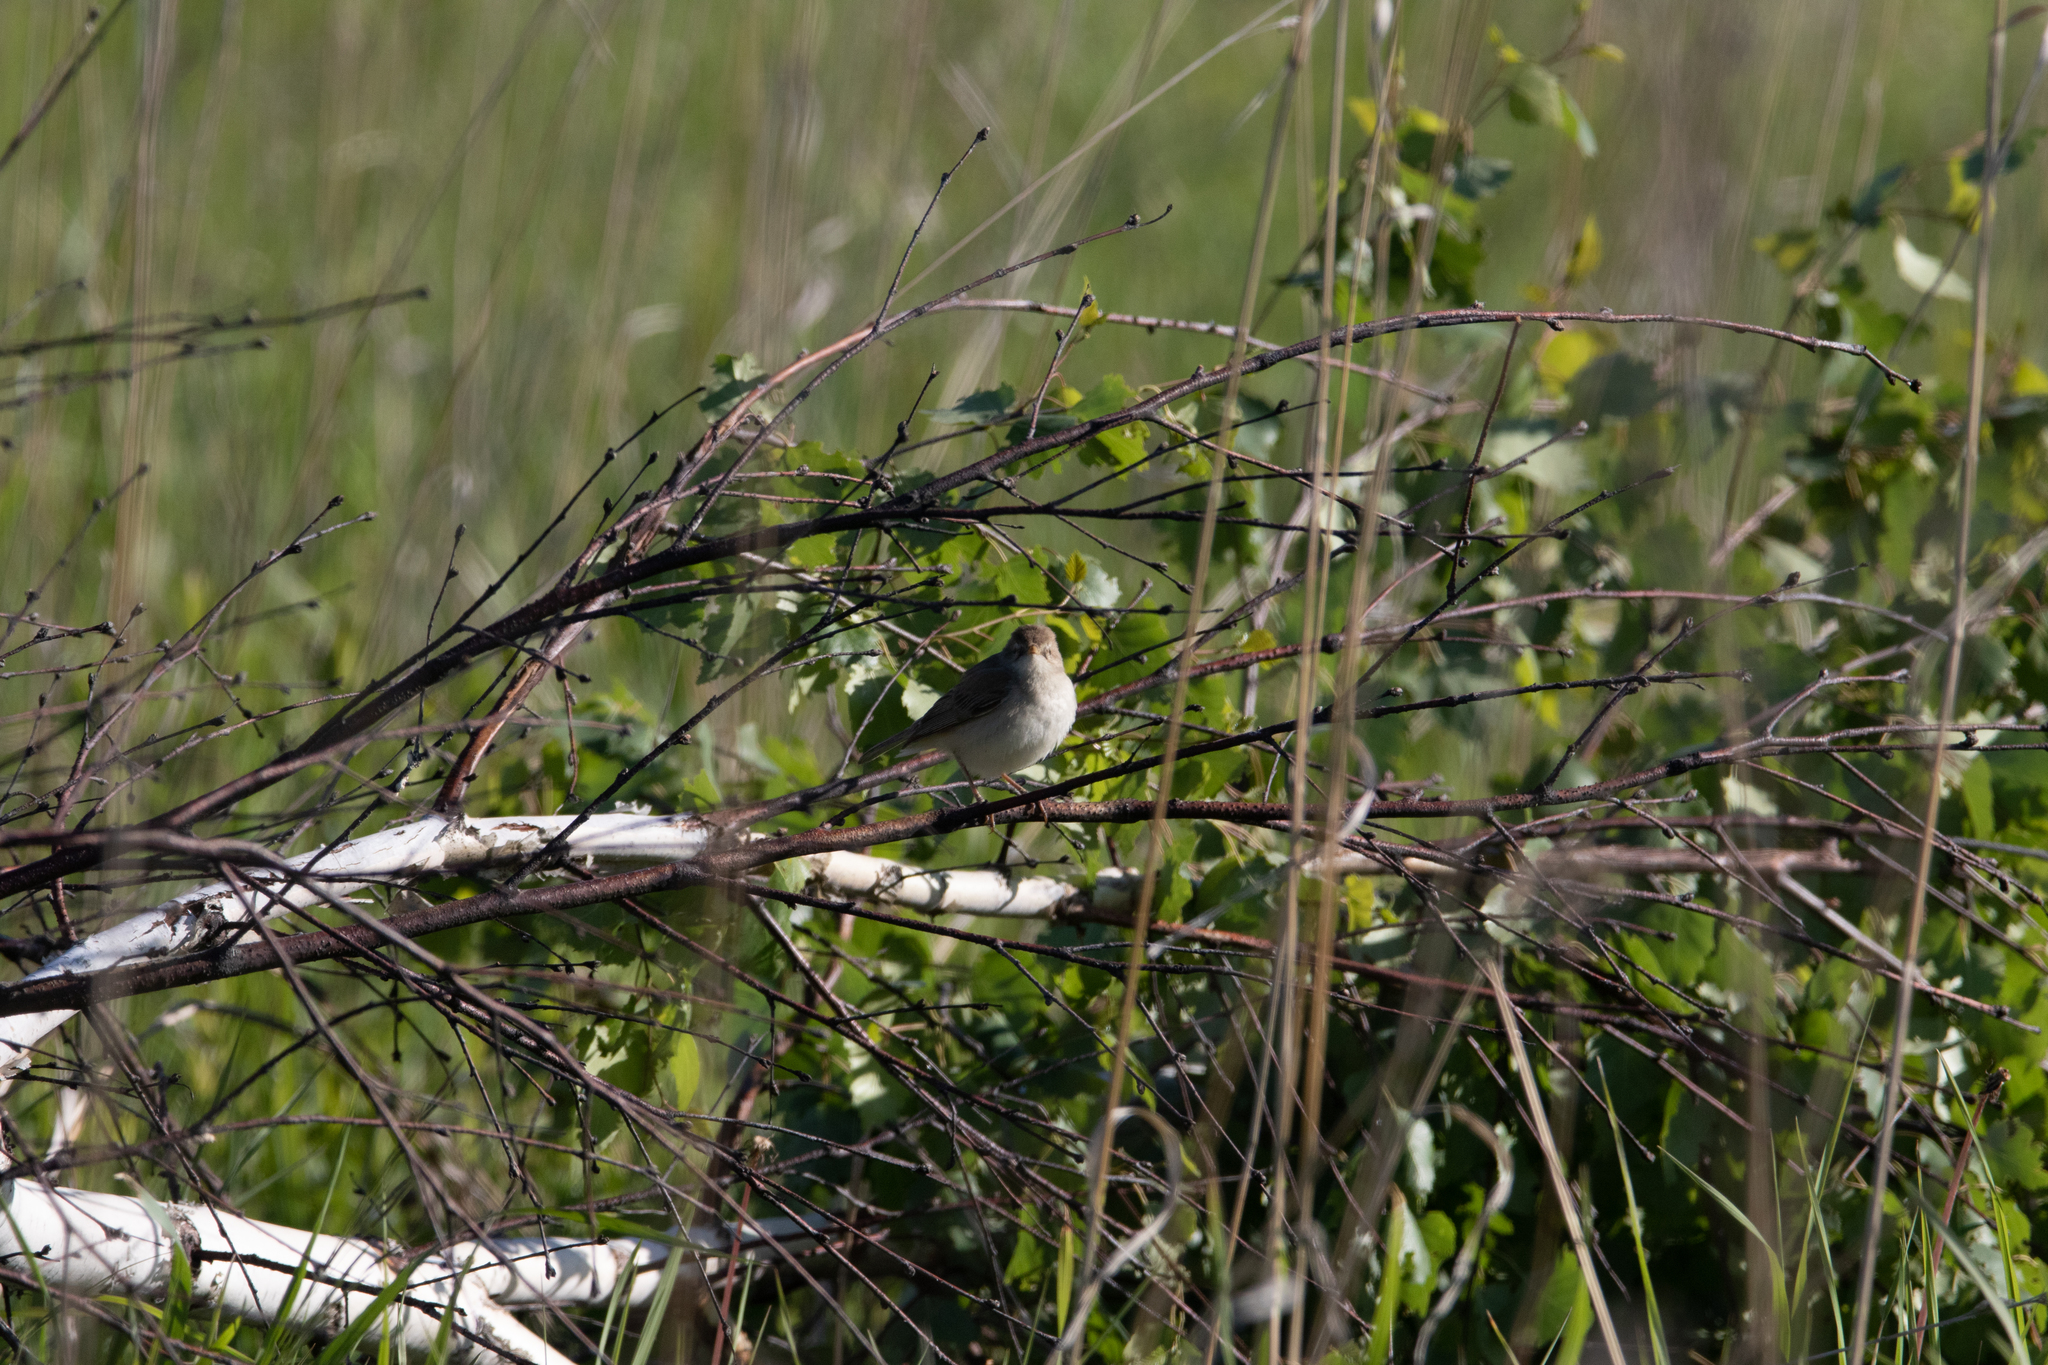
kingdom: Animalia
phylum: Chordata
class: Aves
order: Passeriformes
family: Acrocephalidae
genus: Iduna
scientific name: Iduna caligata
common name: Booted warbler
